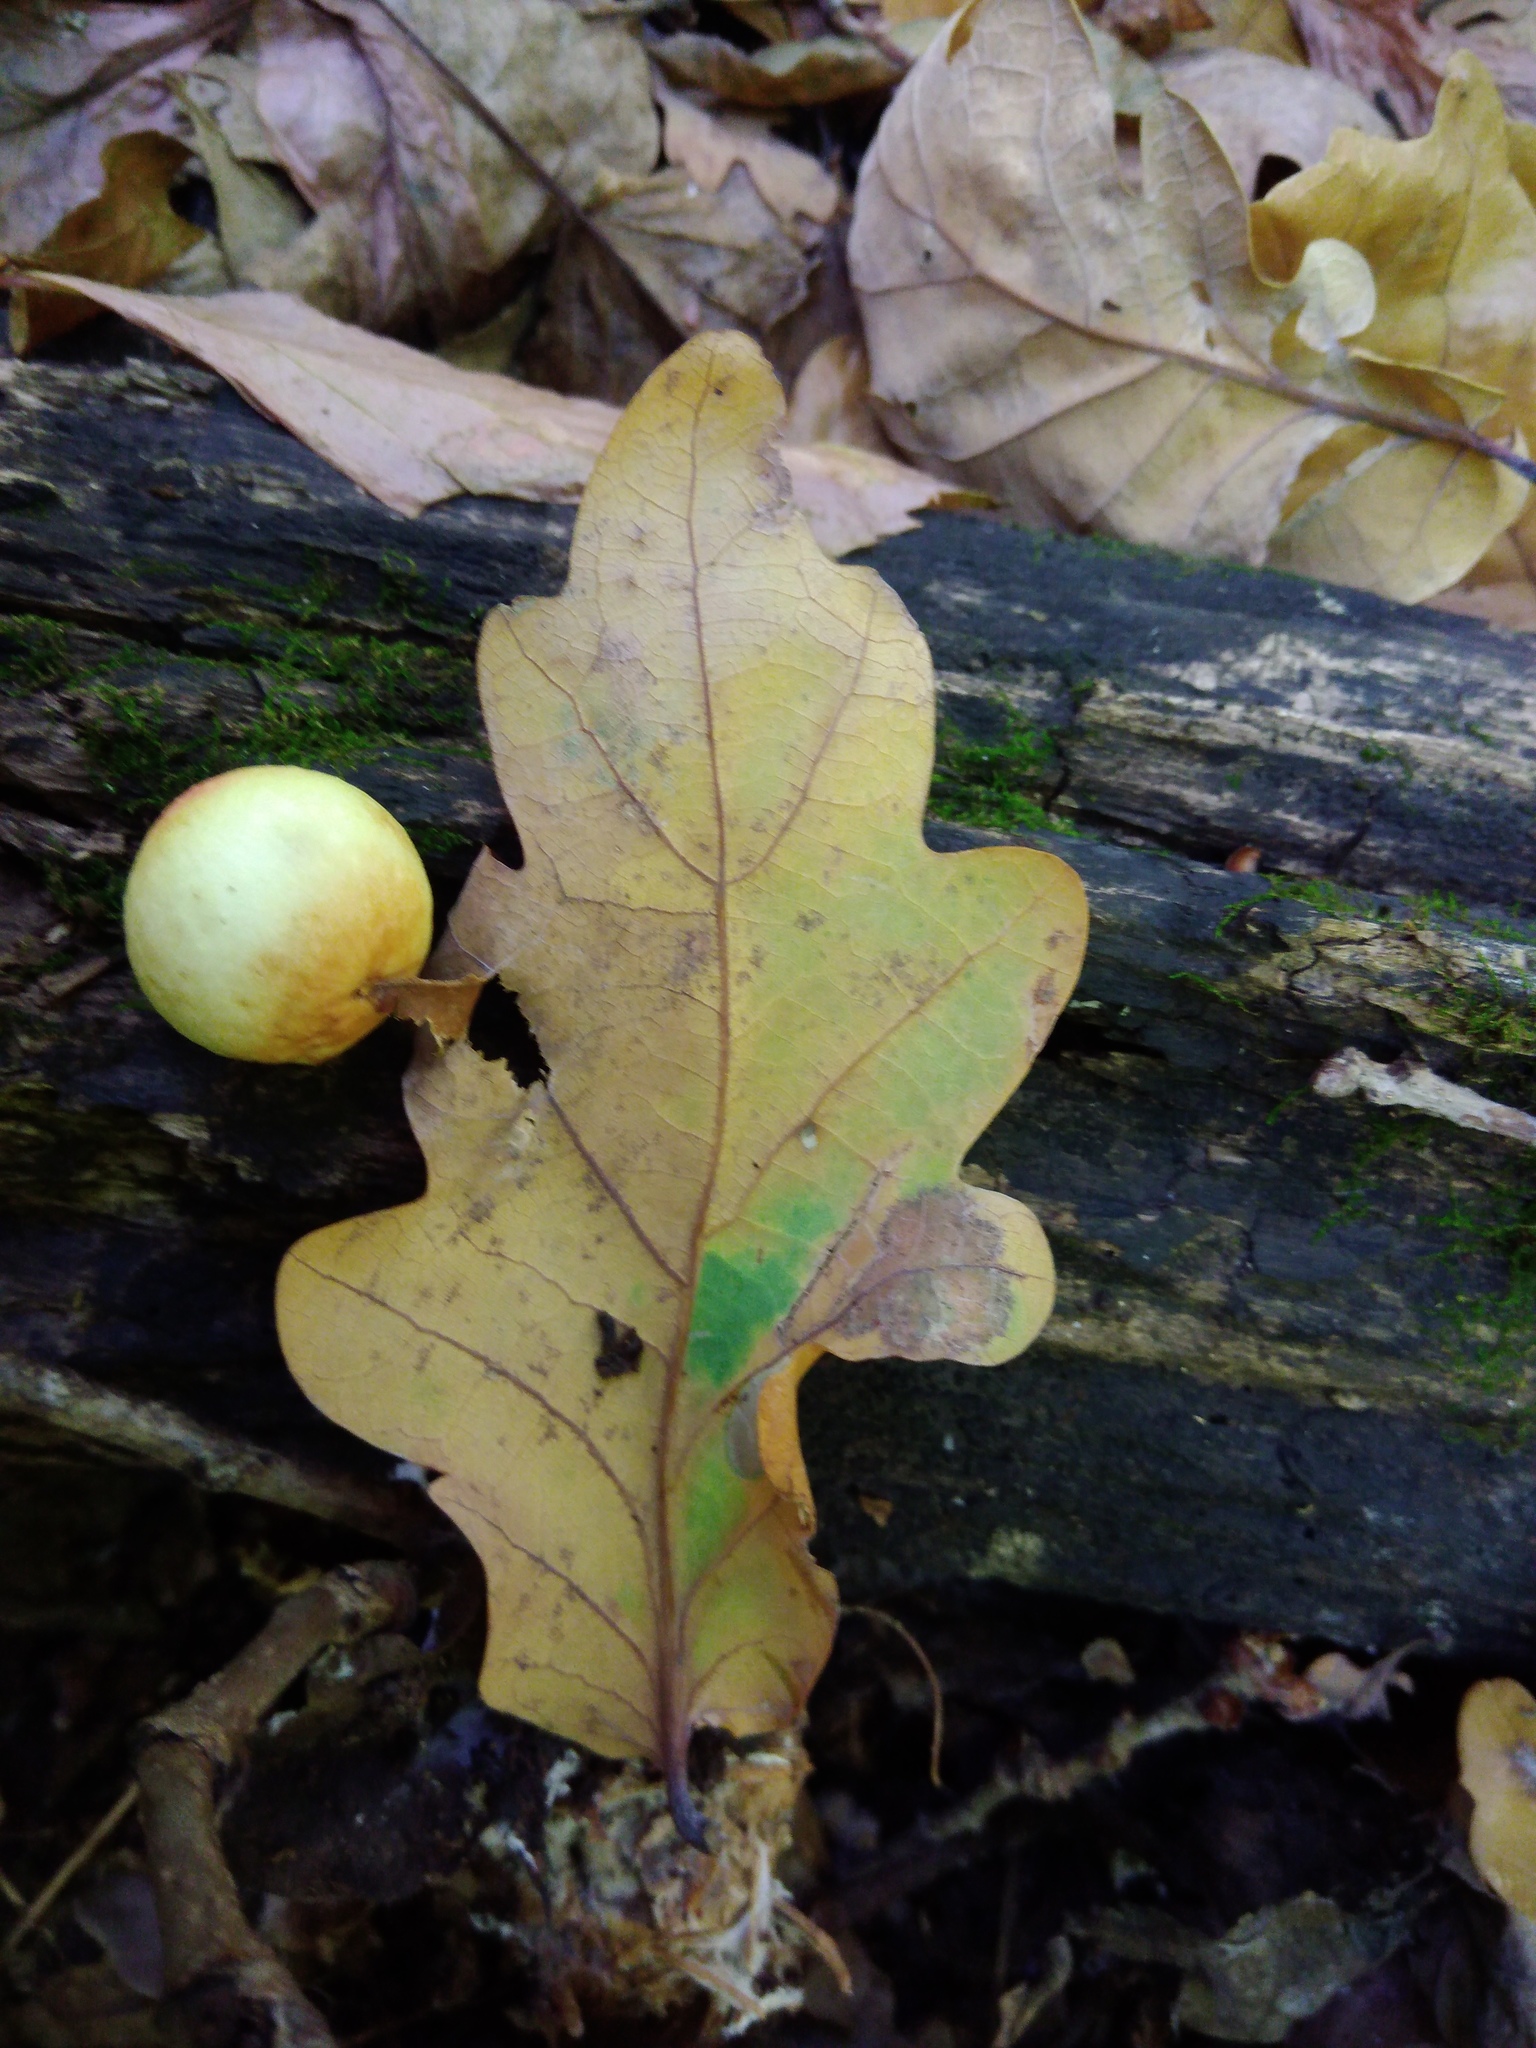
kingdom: Animalia
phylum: Arthropoda
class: Insecta
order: Hymenoptera
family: Cynipidae
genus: Cynips
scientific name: Cynips quercusfolii
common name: Cherry gall
